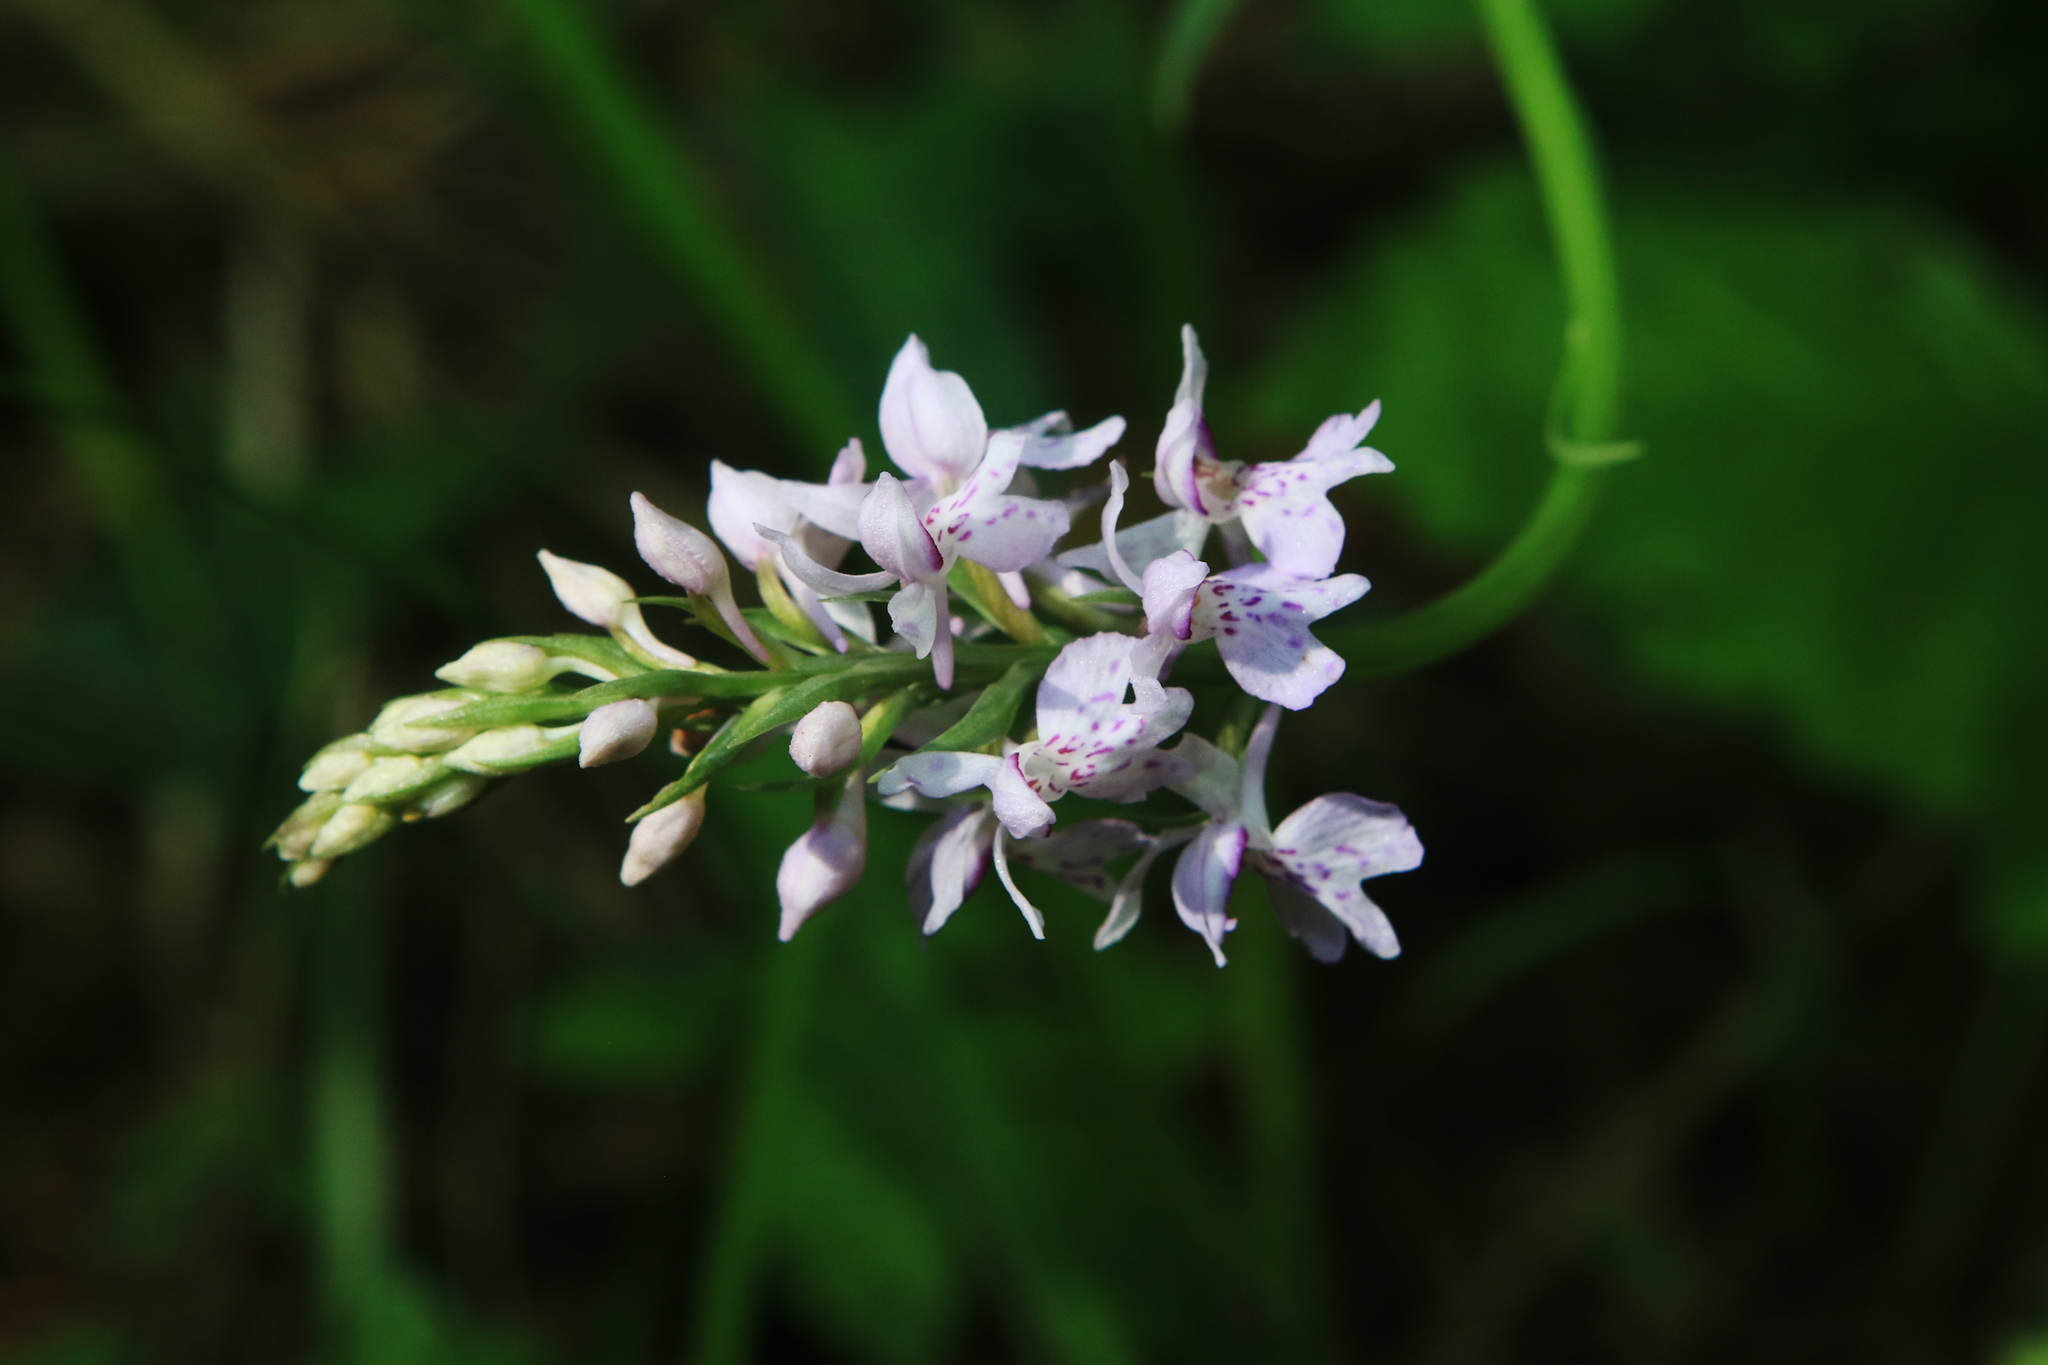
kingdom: Plantae
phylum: Tracheophyta
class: Liliopsida
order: Asparagales
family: Orchidaceae
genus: Dactylorhiza
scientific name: Dactylorhiza maculata
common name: Heath spotted-orchid
